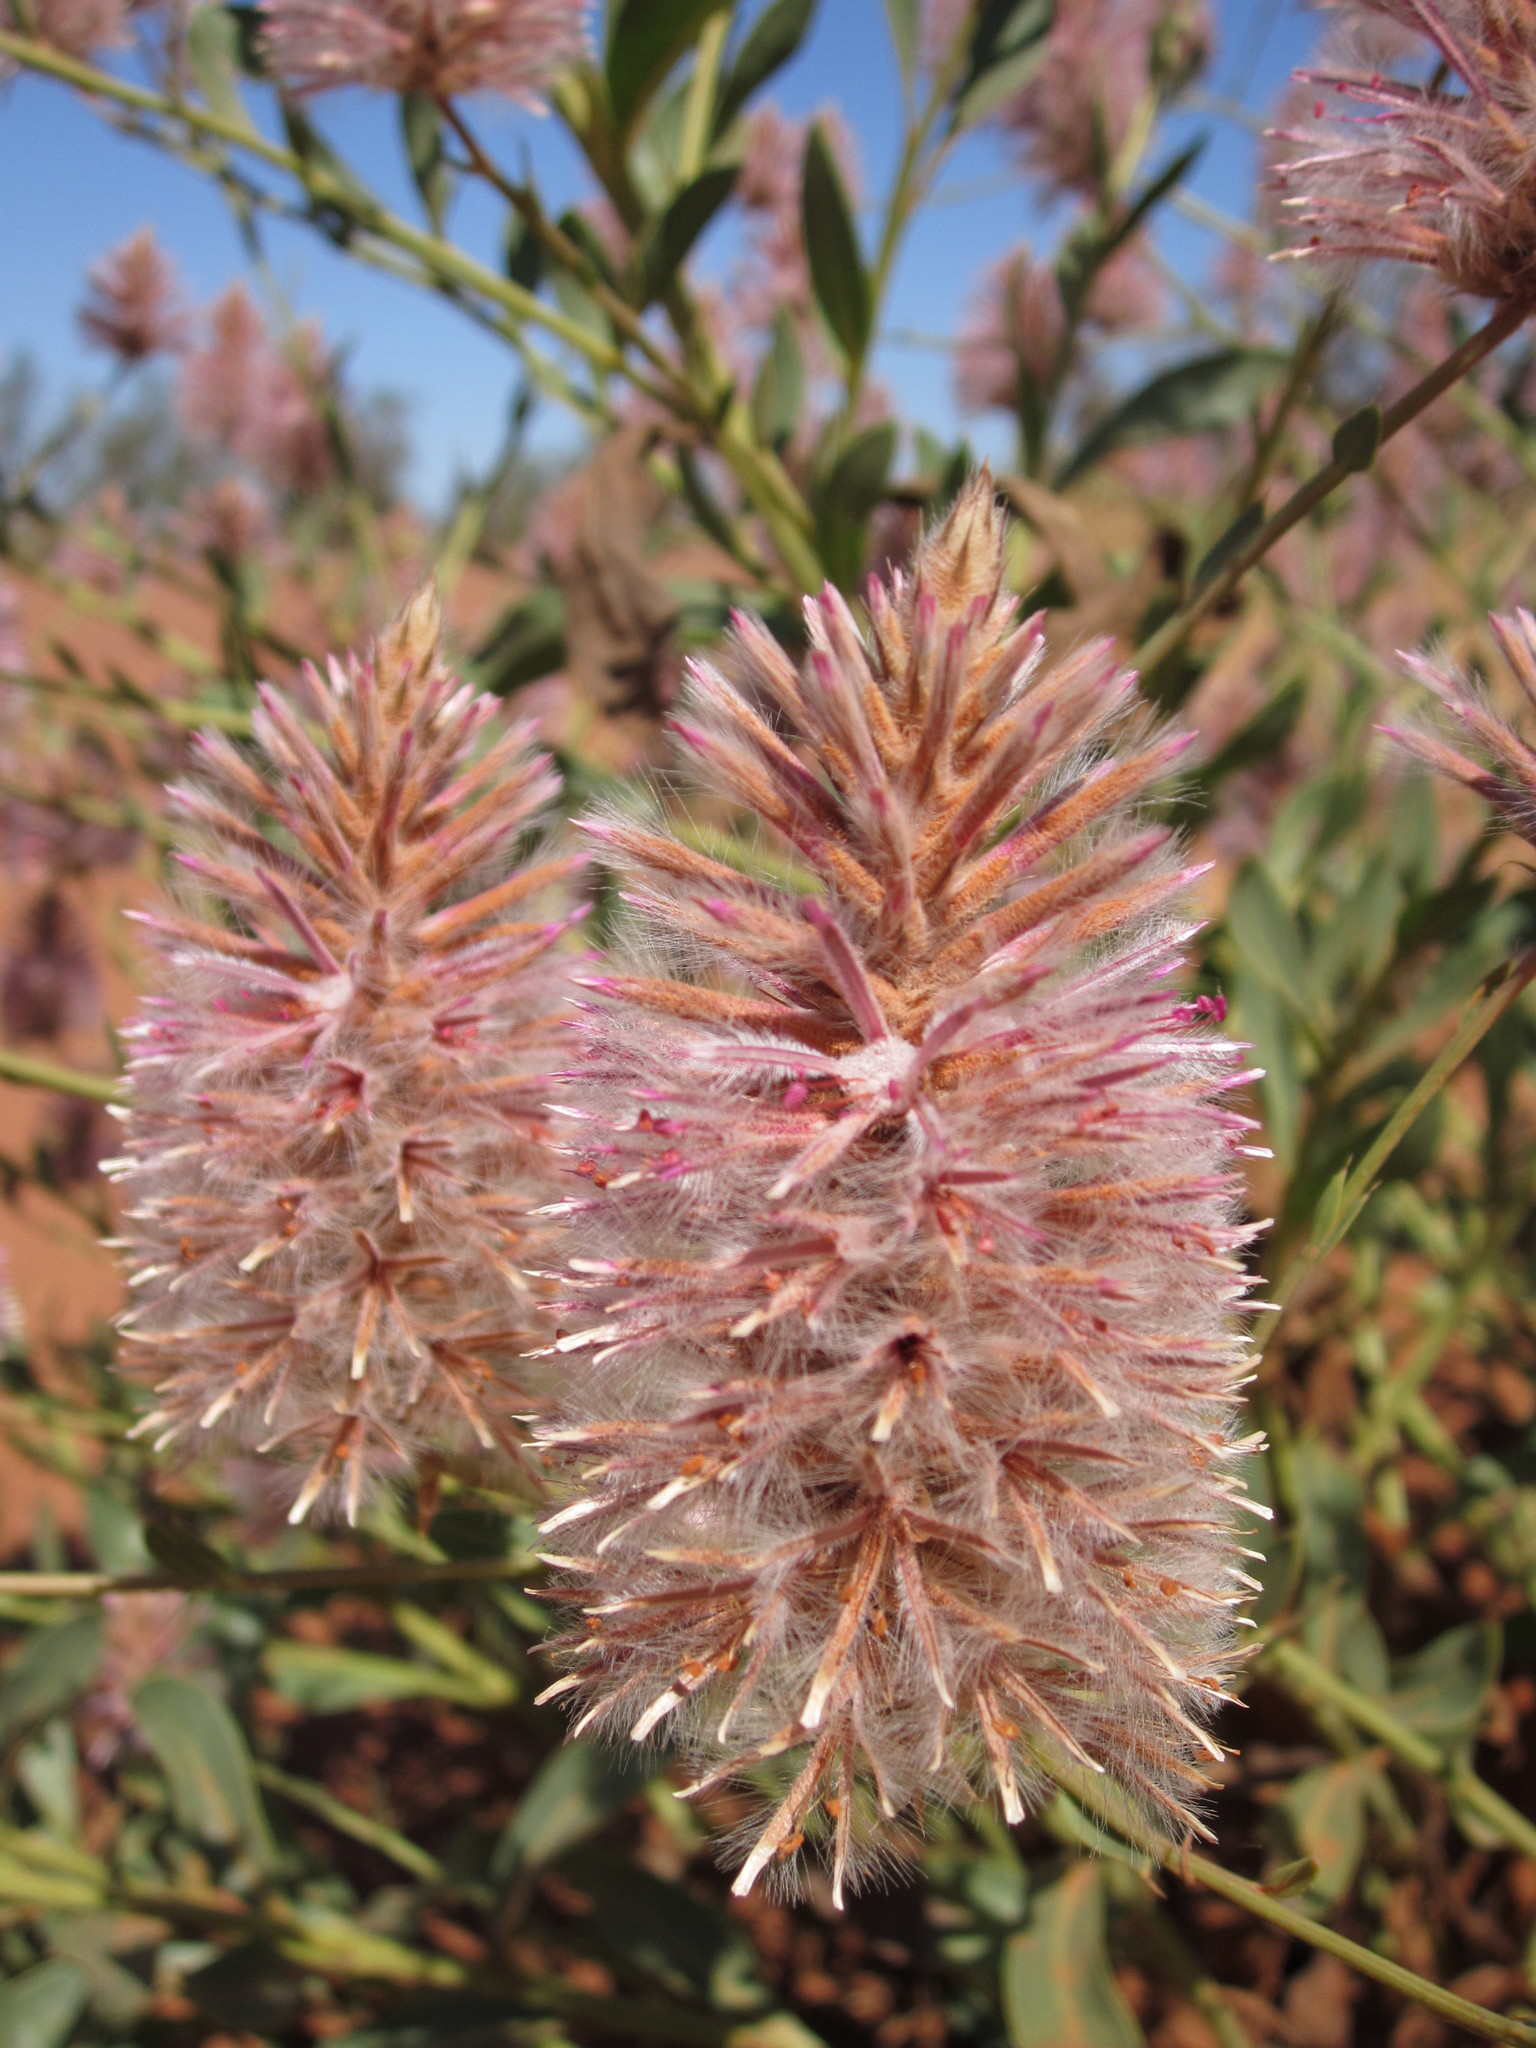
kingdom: Plantae
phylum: Tracheophyta
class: Magnoliopsida
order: Caryophyllales
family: Amaranthaceae
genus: Ptilotus
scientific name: Ptilotus exaltatus
